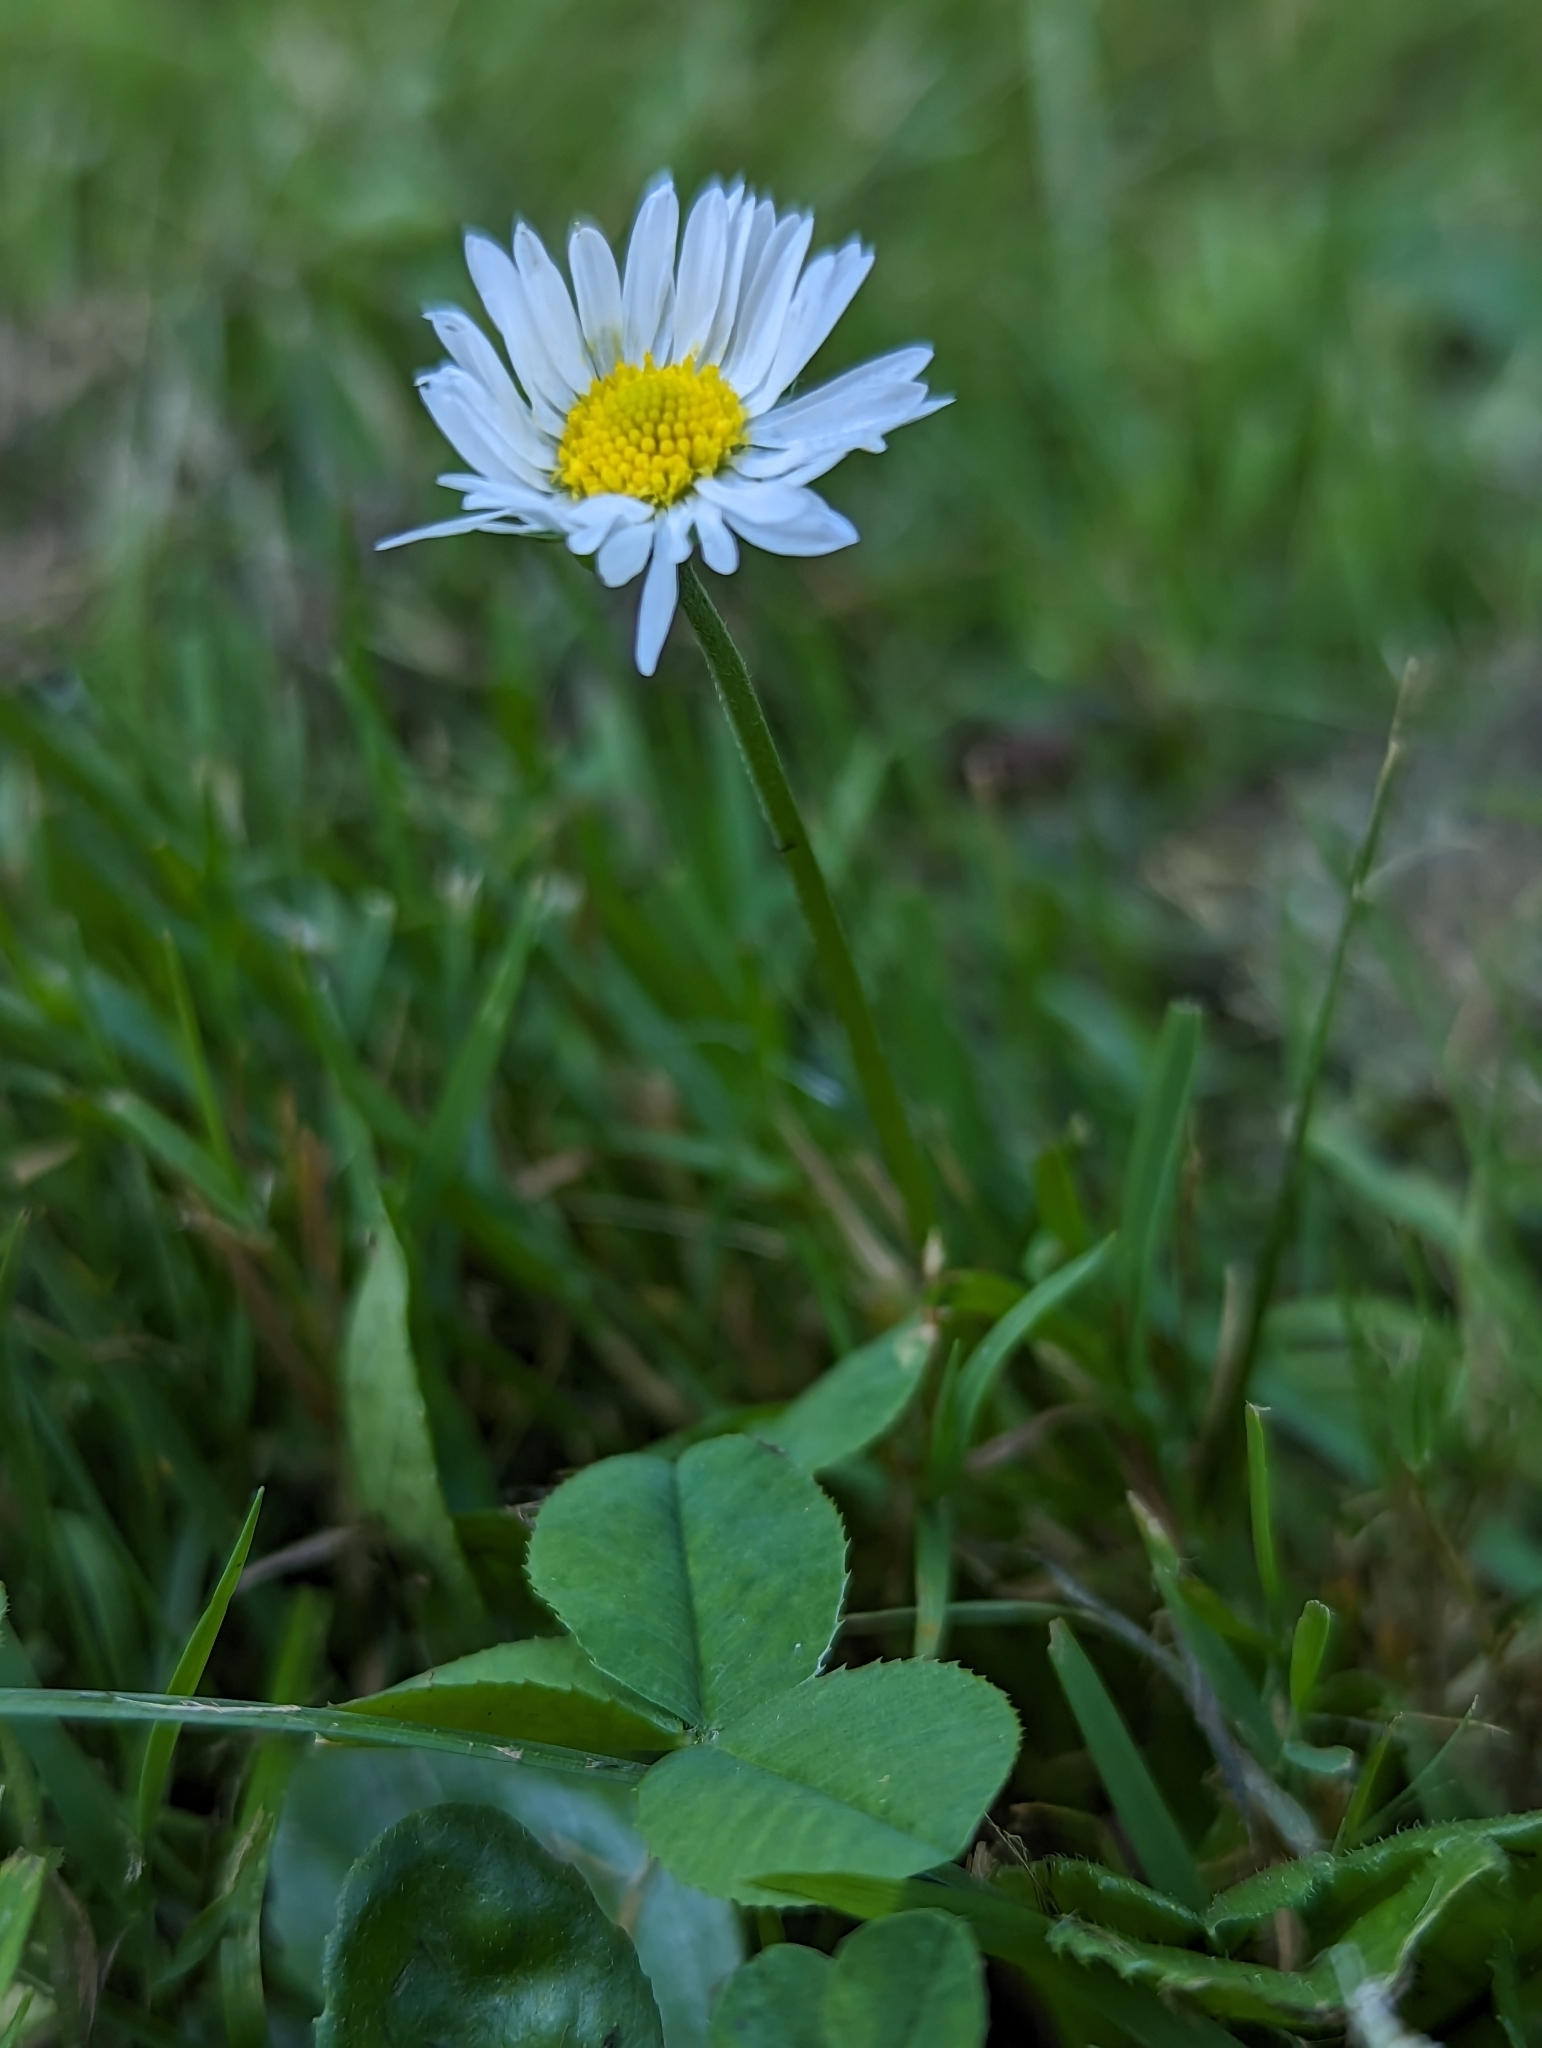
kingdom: Plantae
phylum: Tracheophyta
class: Magnoliopsida
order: Asterales
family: Asteraceae
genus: Bellis
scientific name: Bellis perennis
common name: Lawndaisy
